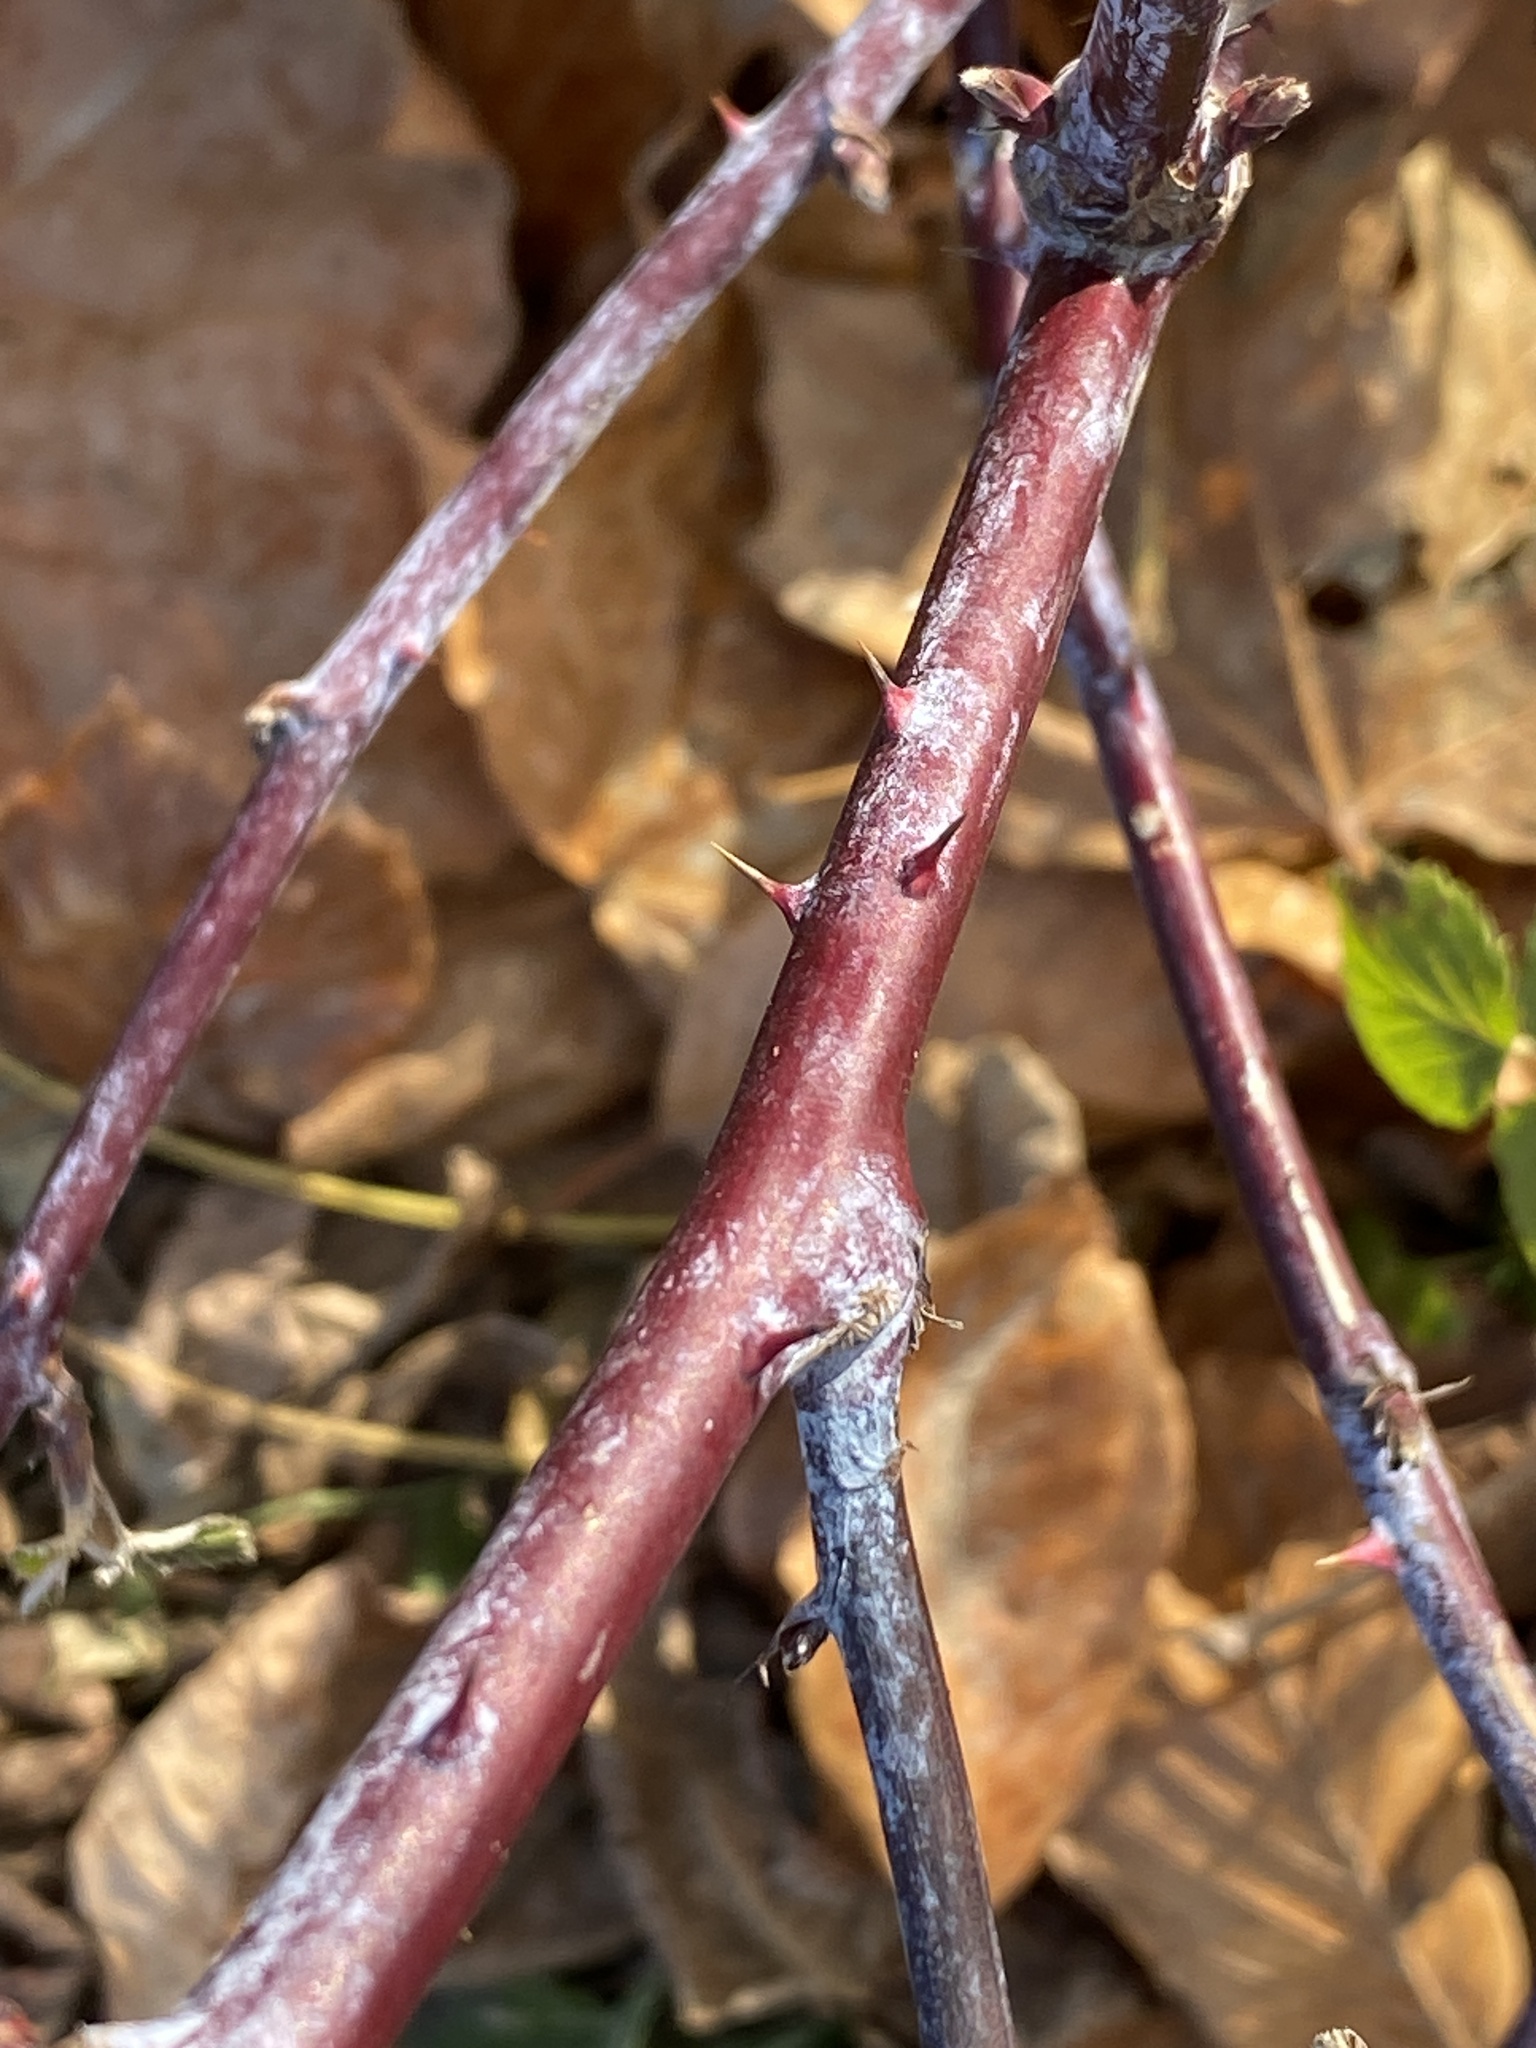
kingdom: Plantae
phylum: Tracheophyta
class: Magnoliopsida
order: Rosales
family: Rosaceae
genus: Rubus
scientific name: Rubus occidentalis
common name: Black raspberry
